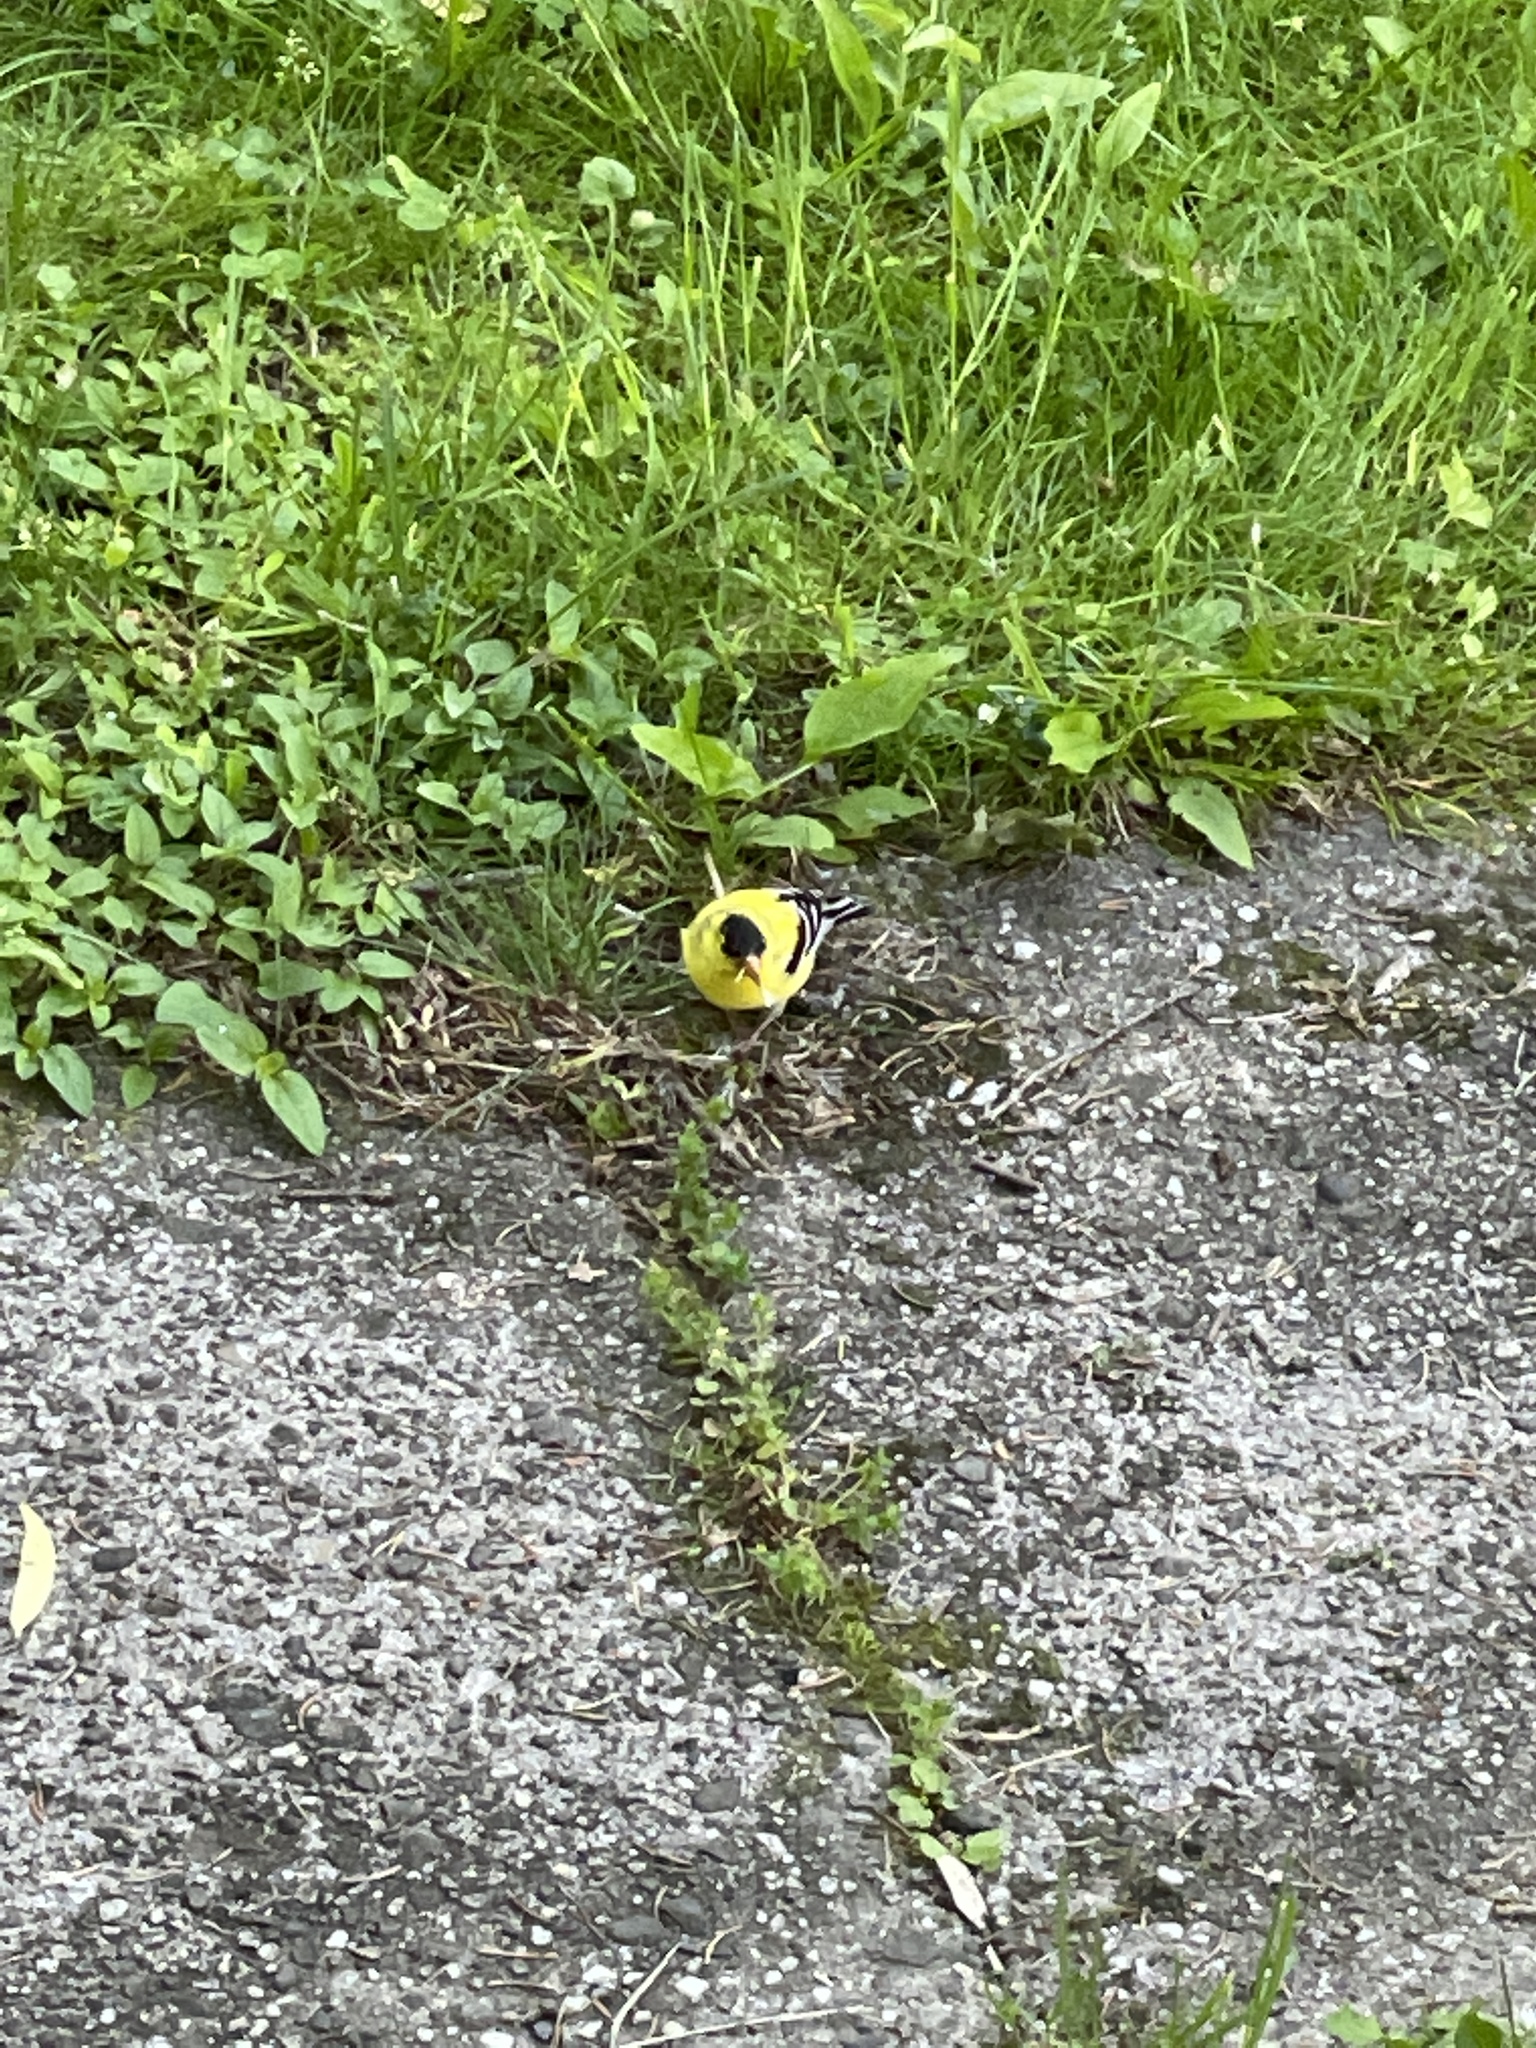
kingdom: Animalia
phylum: Chordata
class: Aves
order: Passeriformes
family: Fringillidae
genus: Spinus
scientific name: Spinus tristis
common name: American goldfinch
